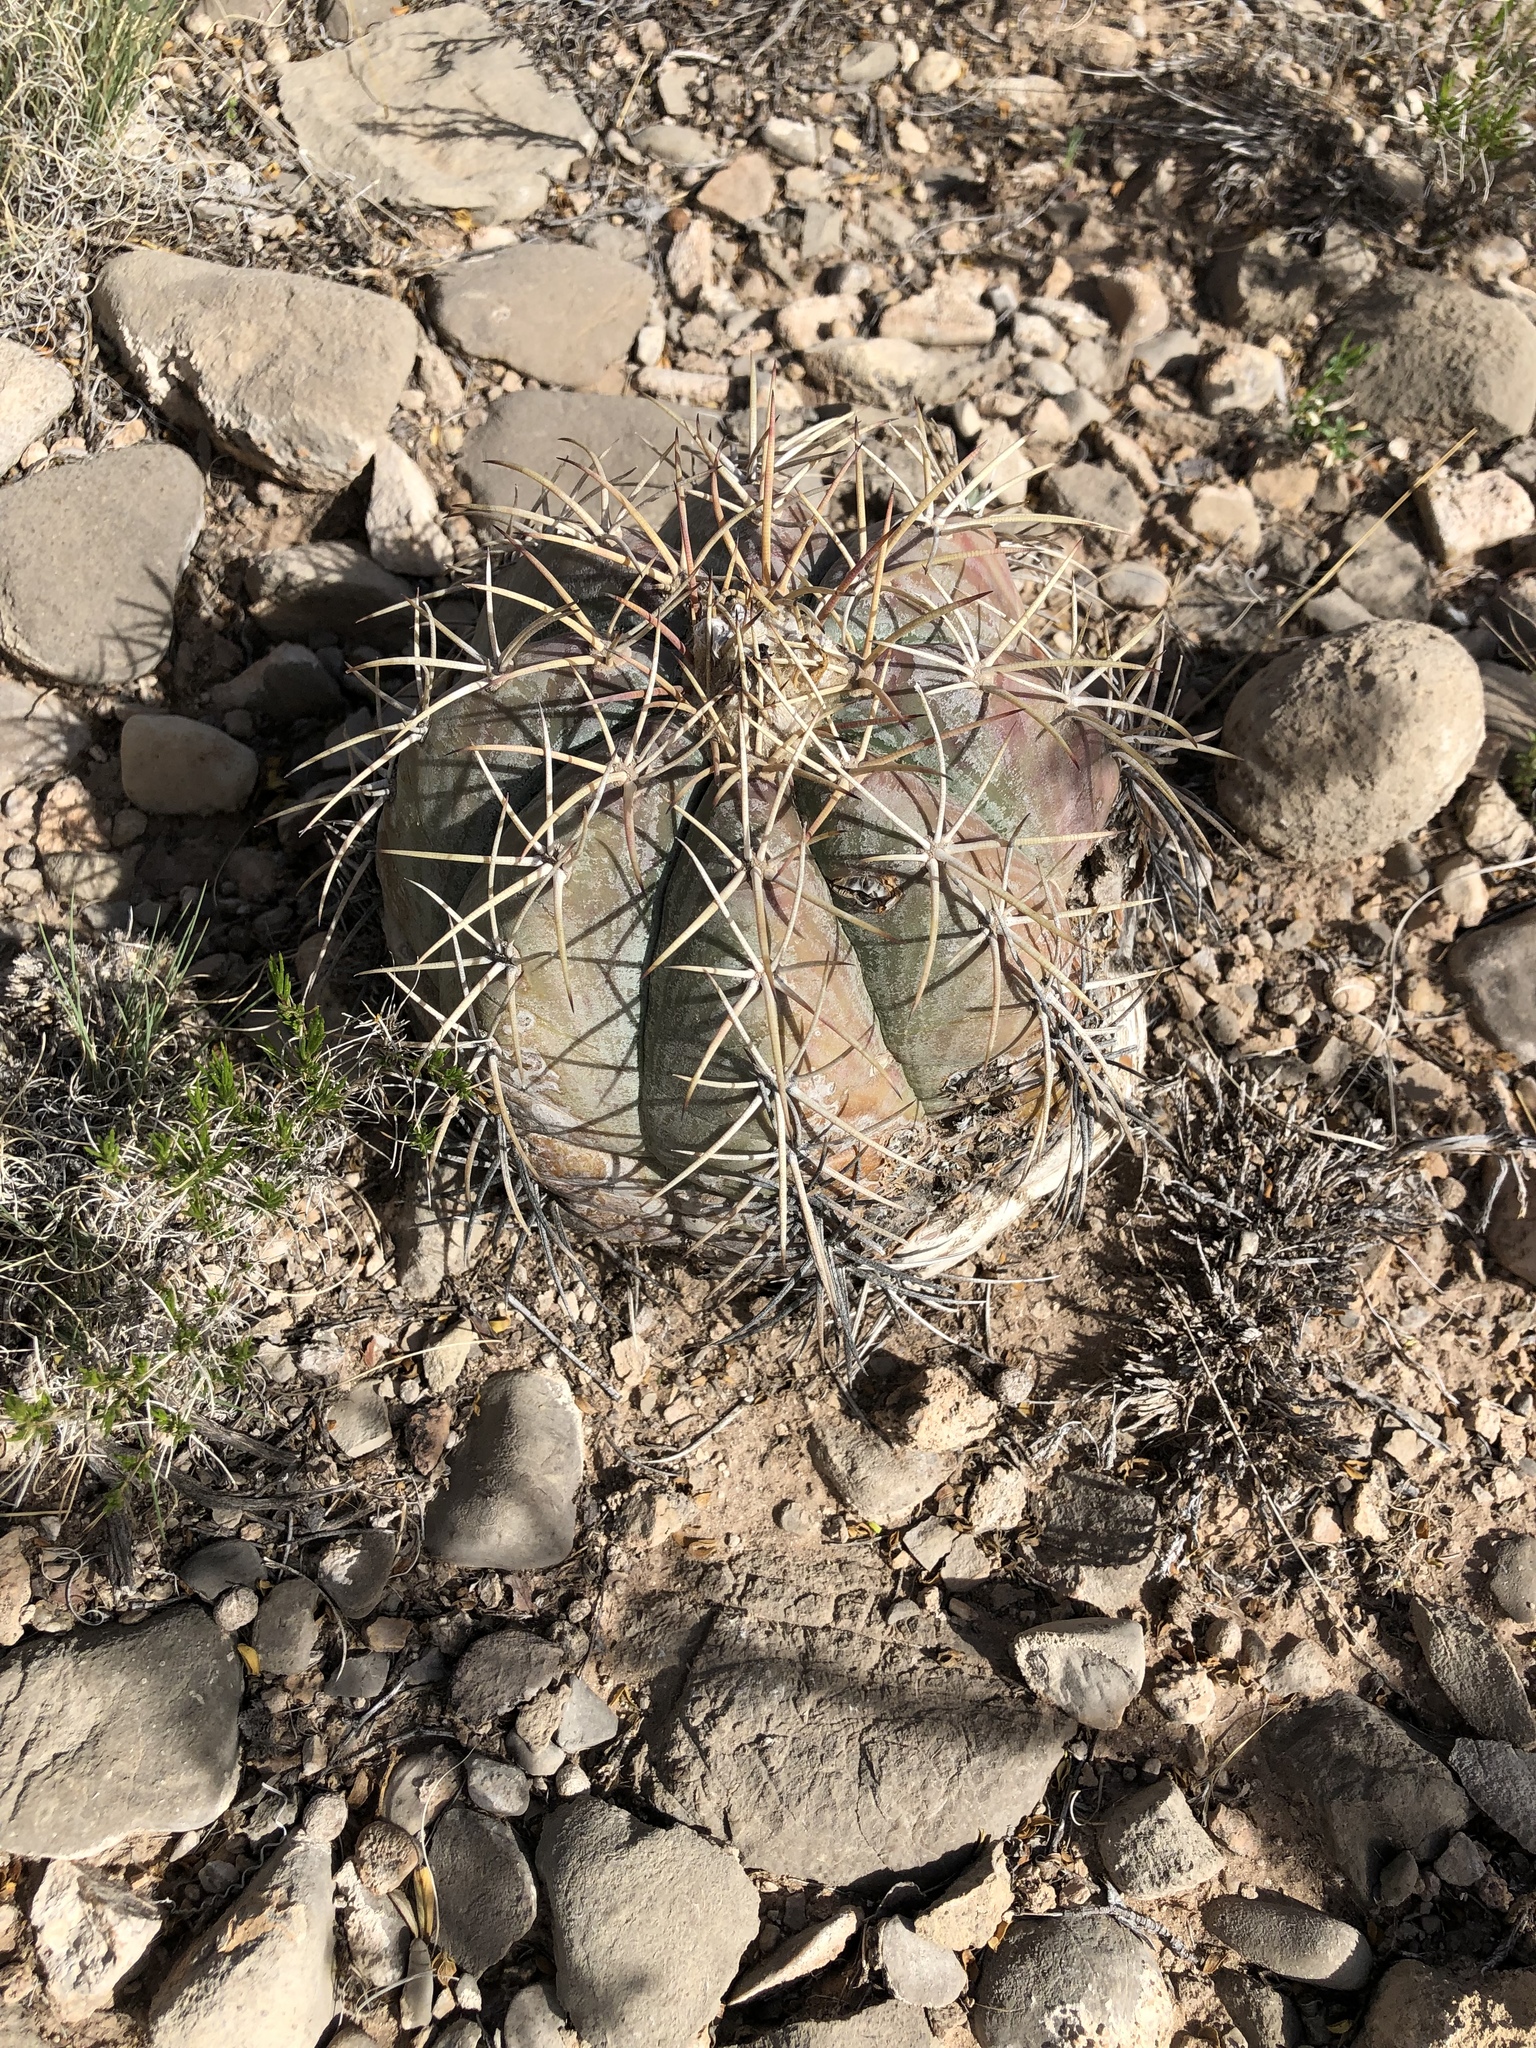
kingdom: Plantae
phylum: Tracheophyta
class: Magnoliopsida
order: Caryophyllales
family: Cactaceae
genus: Echinocactus
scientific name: Echinocactus horizonthalonius
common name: Devilshead
